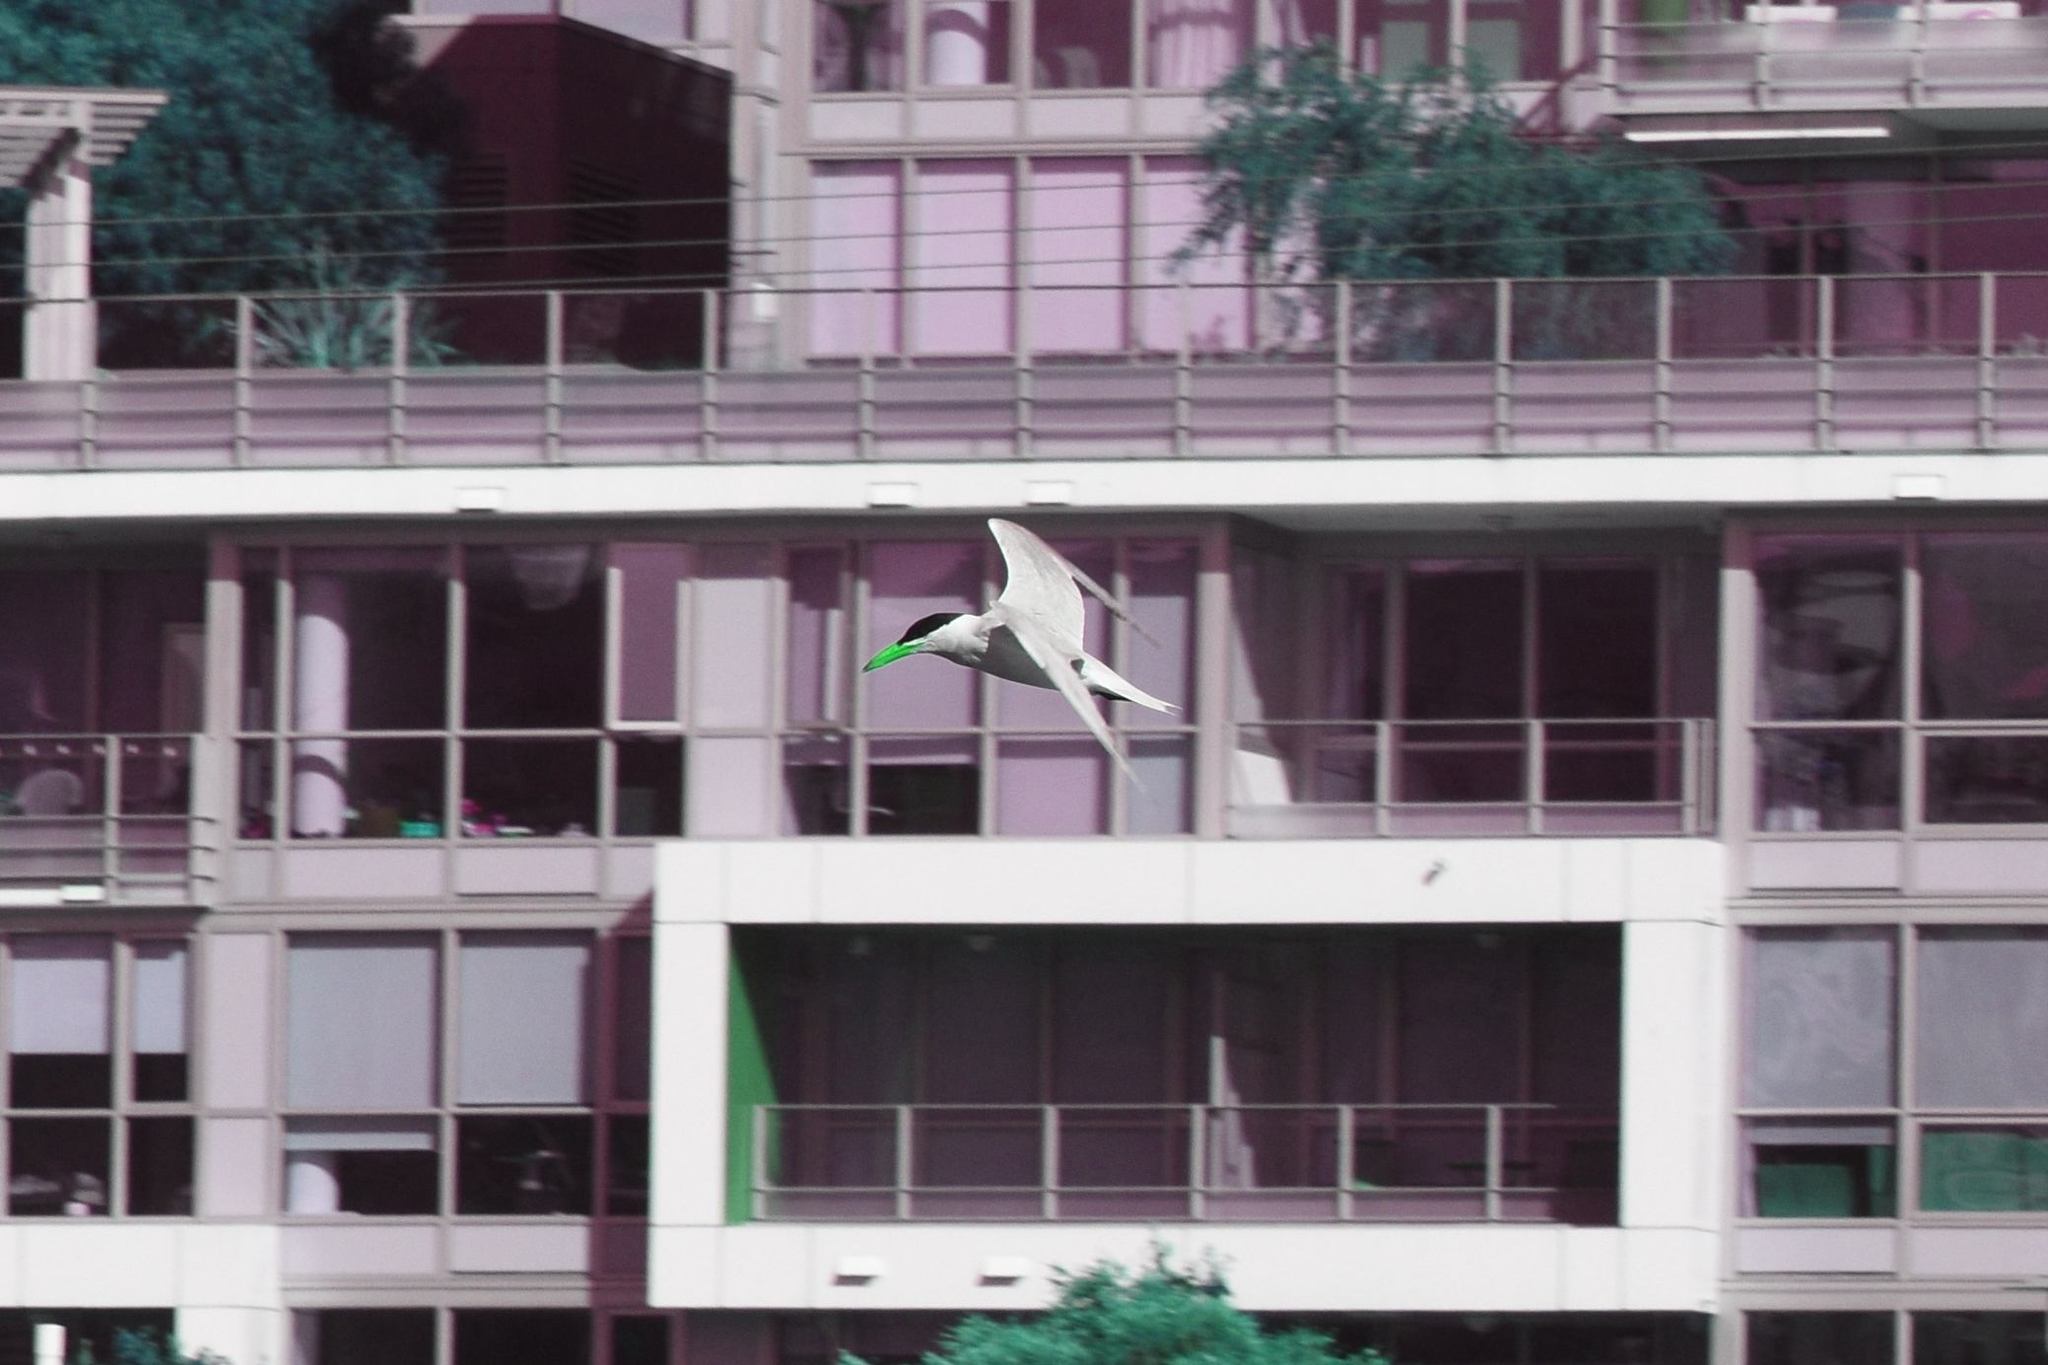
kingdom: Animalia
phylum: Chordata
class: Aves
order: Charadriiformes
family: Laridae
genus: Hydroprogne
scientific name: Hydroprogne caspia
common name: Caspian tern
